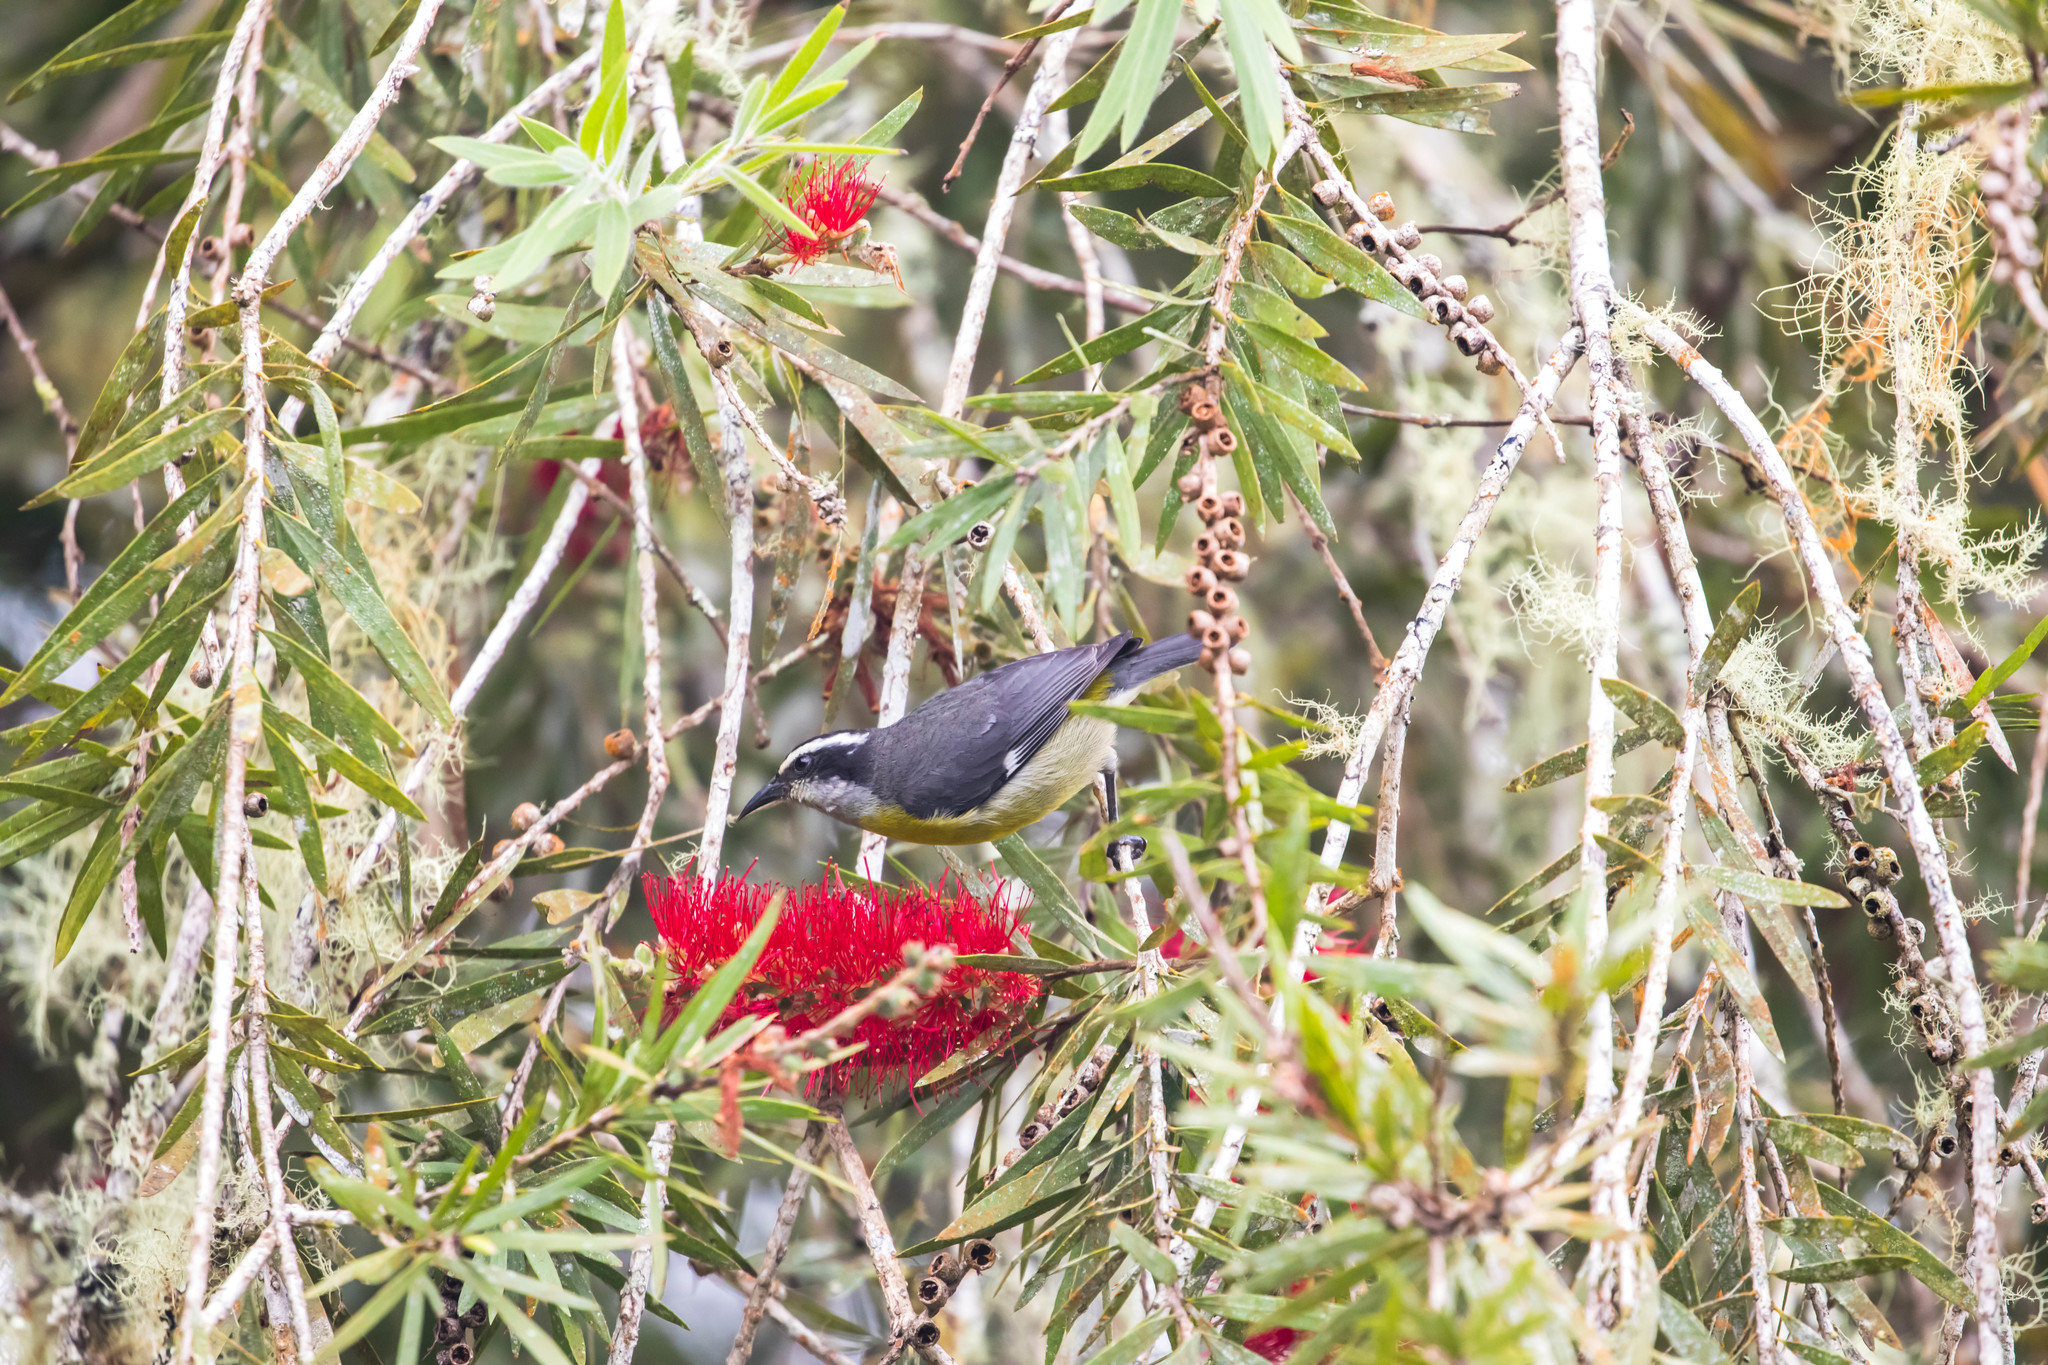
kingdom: Animalia
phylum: Chordata
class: Aves
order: Passeriformes
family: Thraupidae
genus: Coereba
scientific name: Coereba flaveola
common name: Bananaquit
